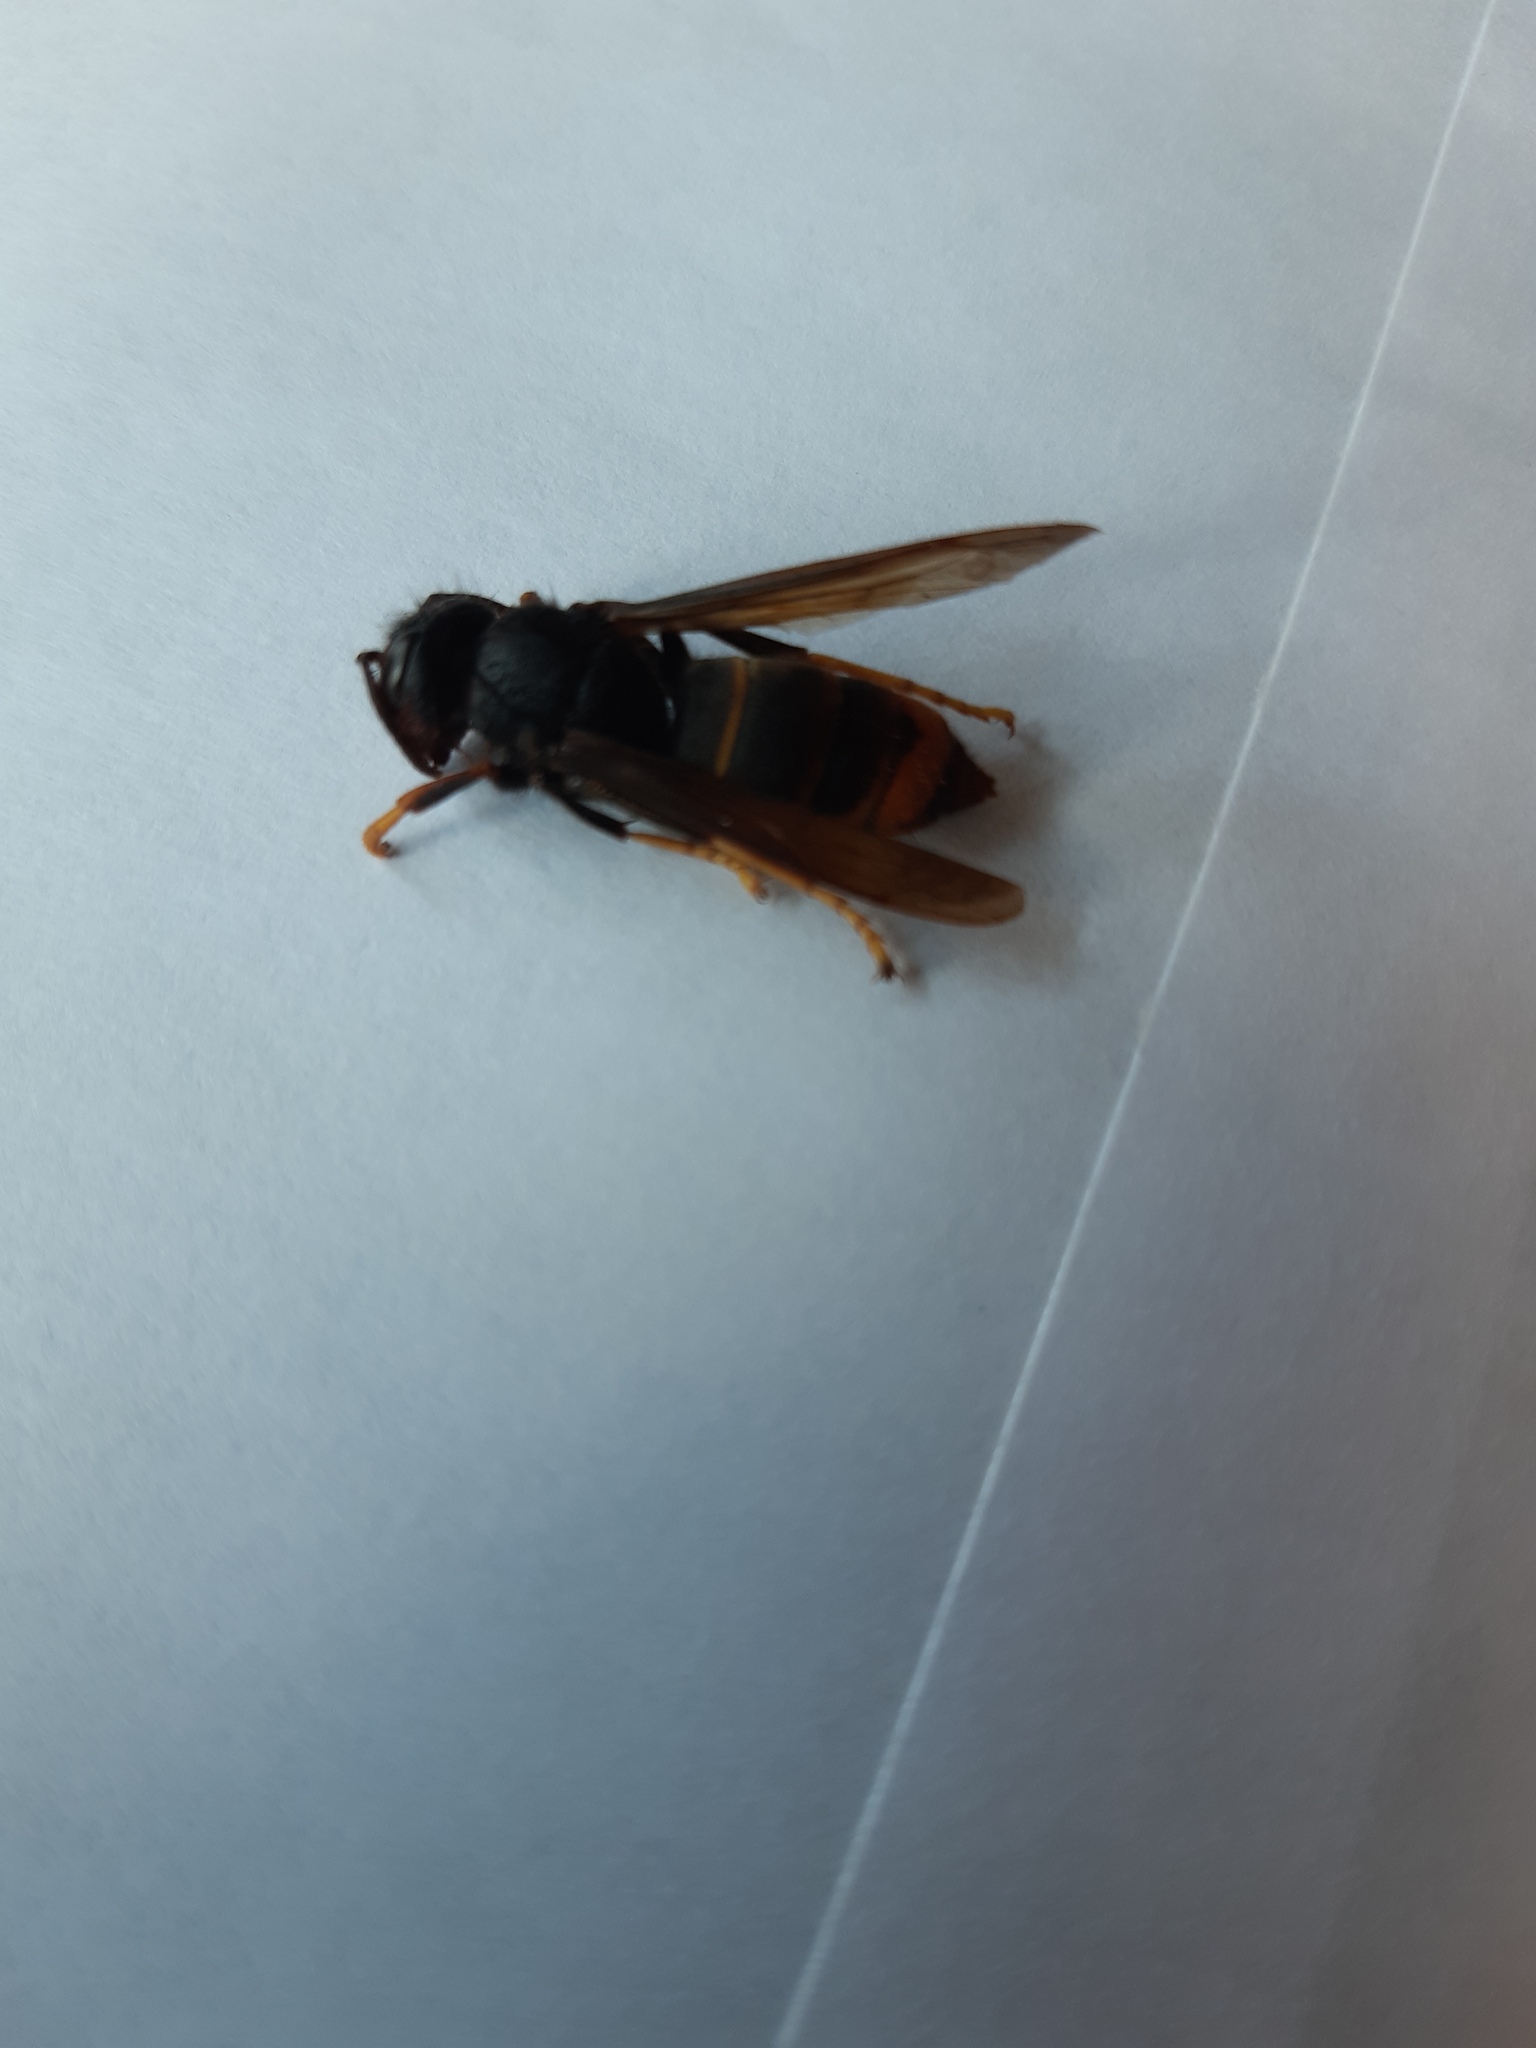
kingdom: Animalia
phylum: Arthropoda
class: Insecta
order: Hymenoptera
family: Vespidae
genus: Vespa
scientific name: Vespa velutina
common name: Asian hornet
